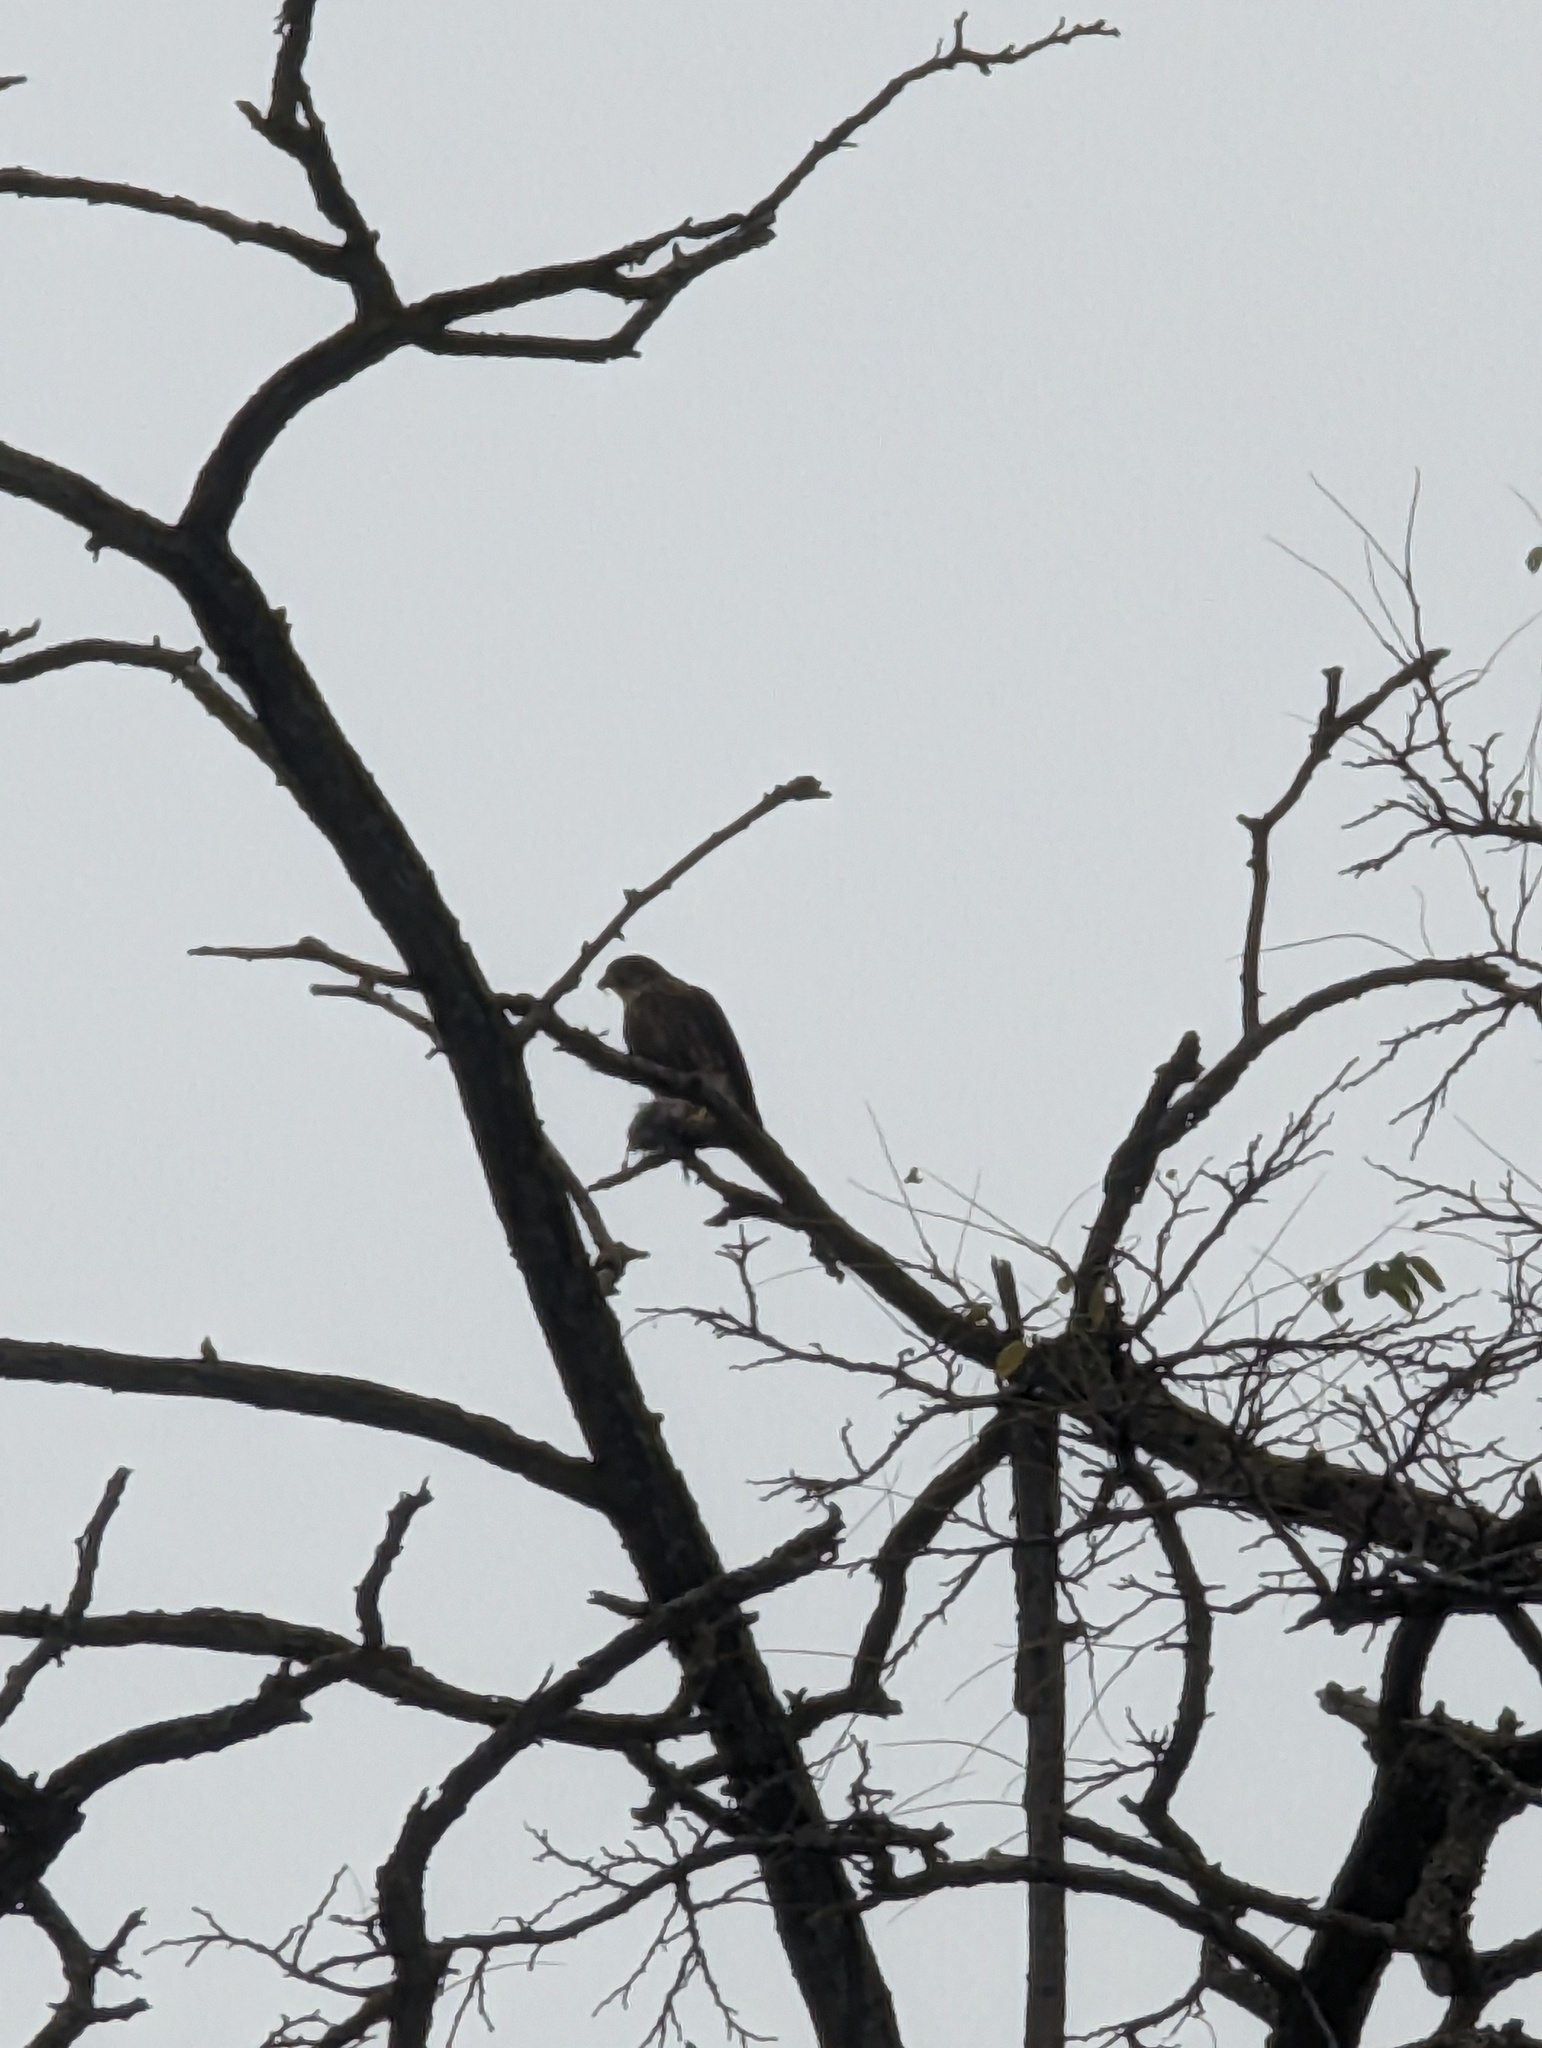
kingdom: Animalia
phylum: Chordata
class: Aves
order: Falconiformes
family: Falconidae
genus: Falco
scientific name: Falco columbarius
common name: Merlin
